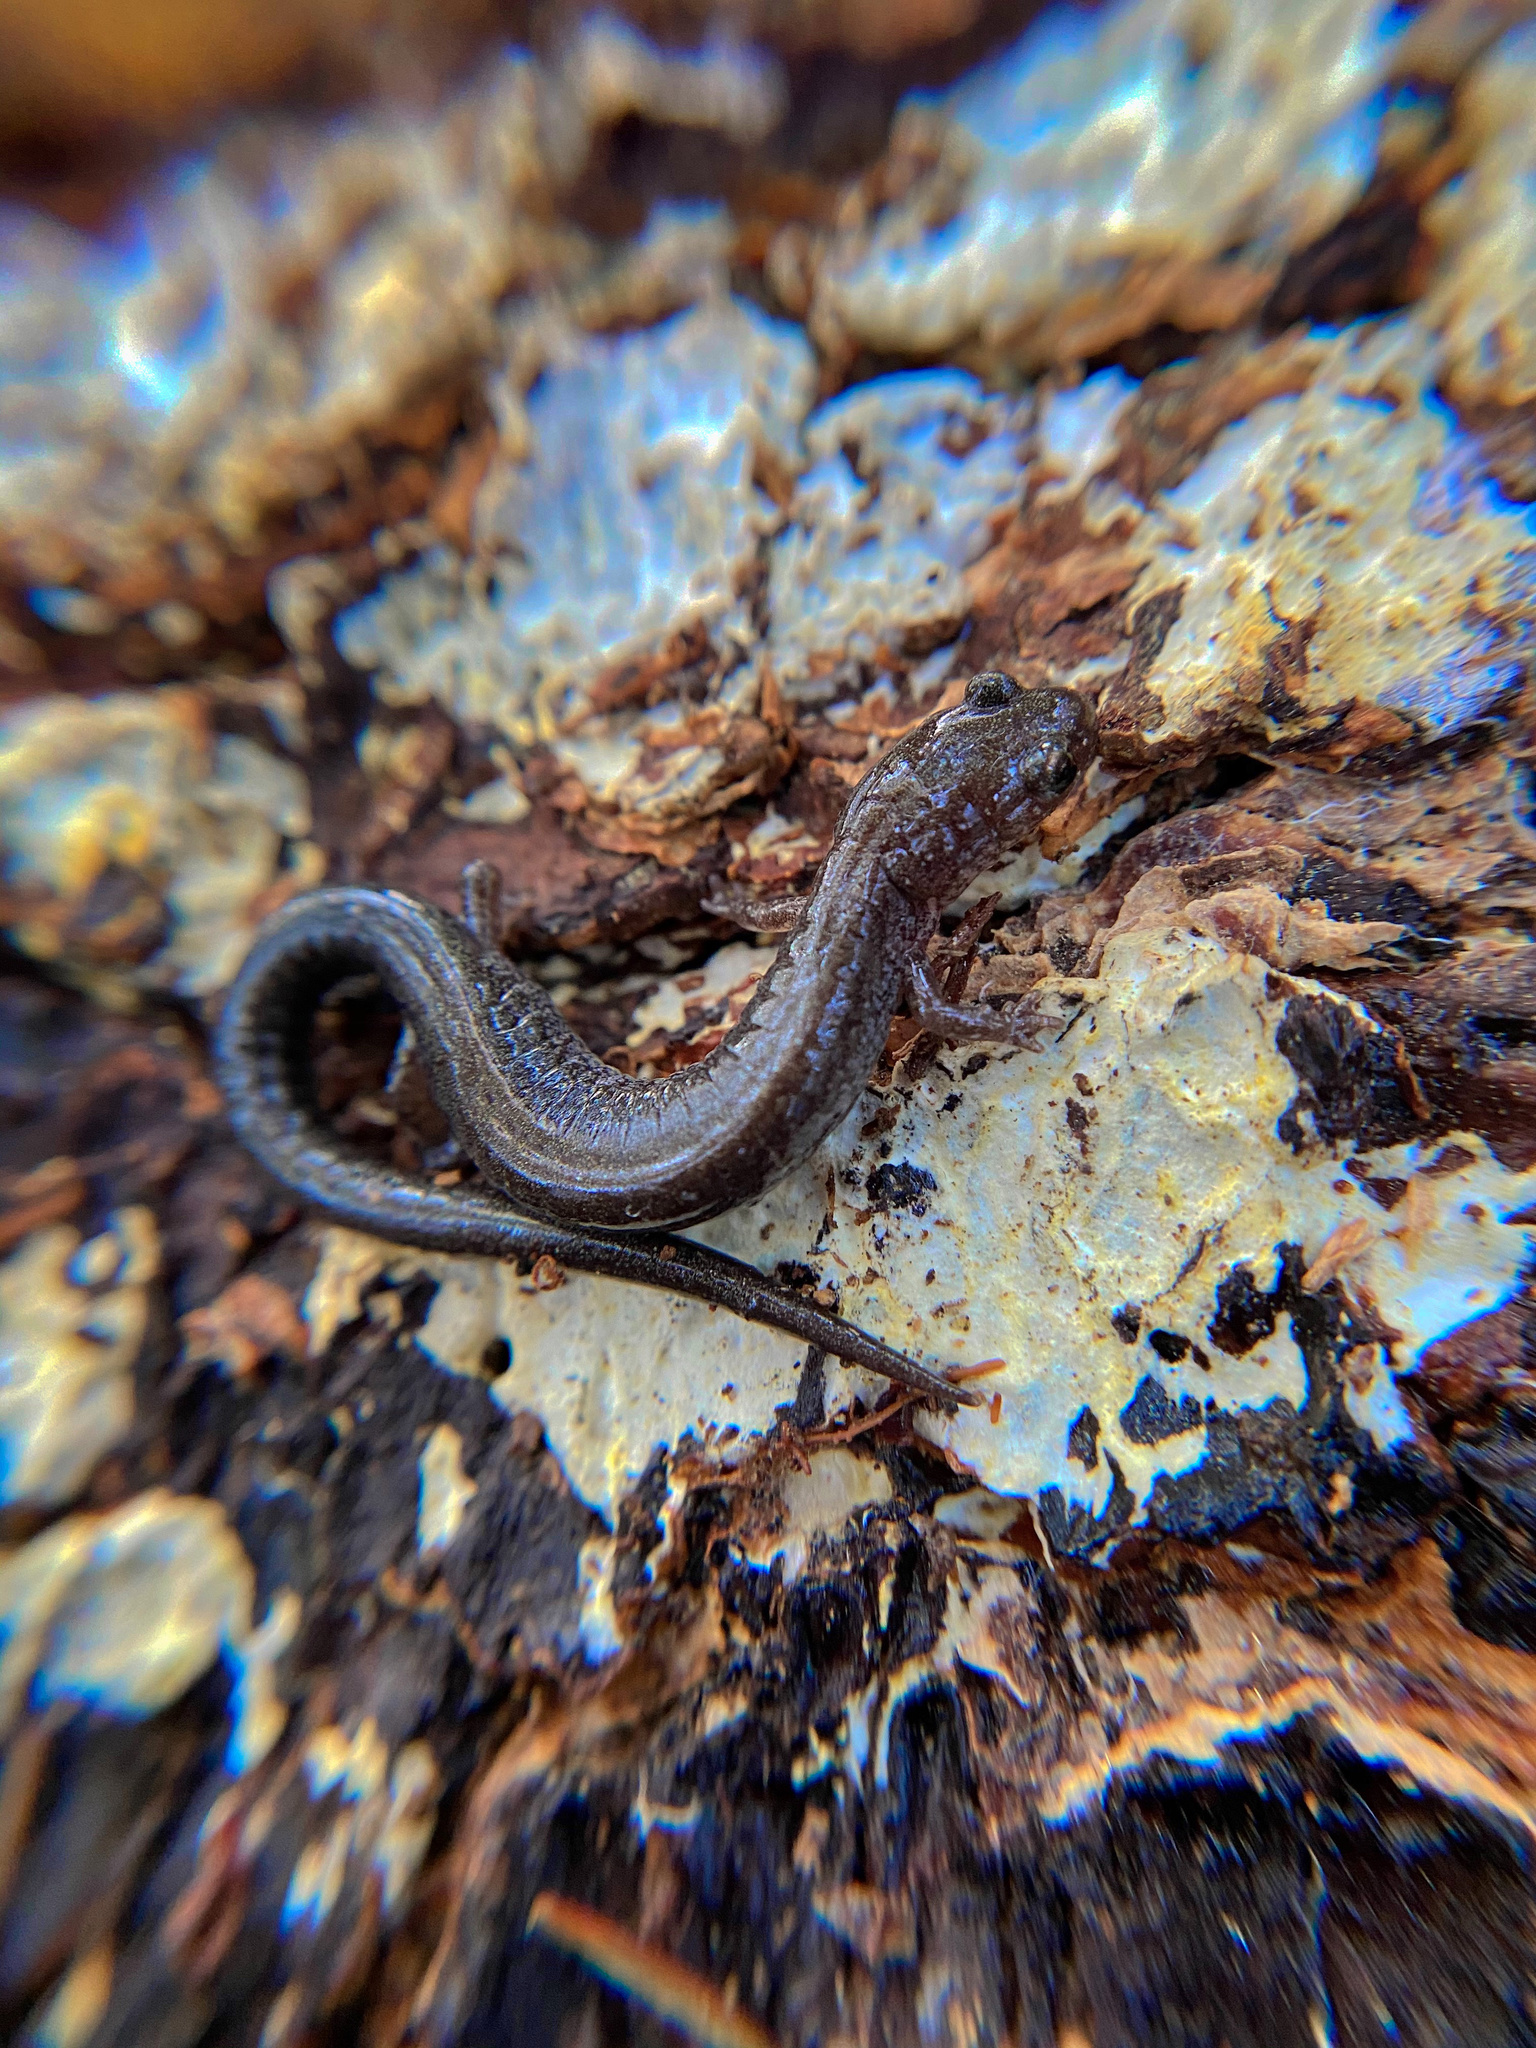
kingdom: Animalia
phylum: Chordata
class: Amphibia
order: Caudata
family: Plethodontidae
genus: Plethodon
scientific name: Plethodon cinereus
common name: Redback salamander
